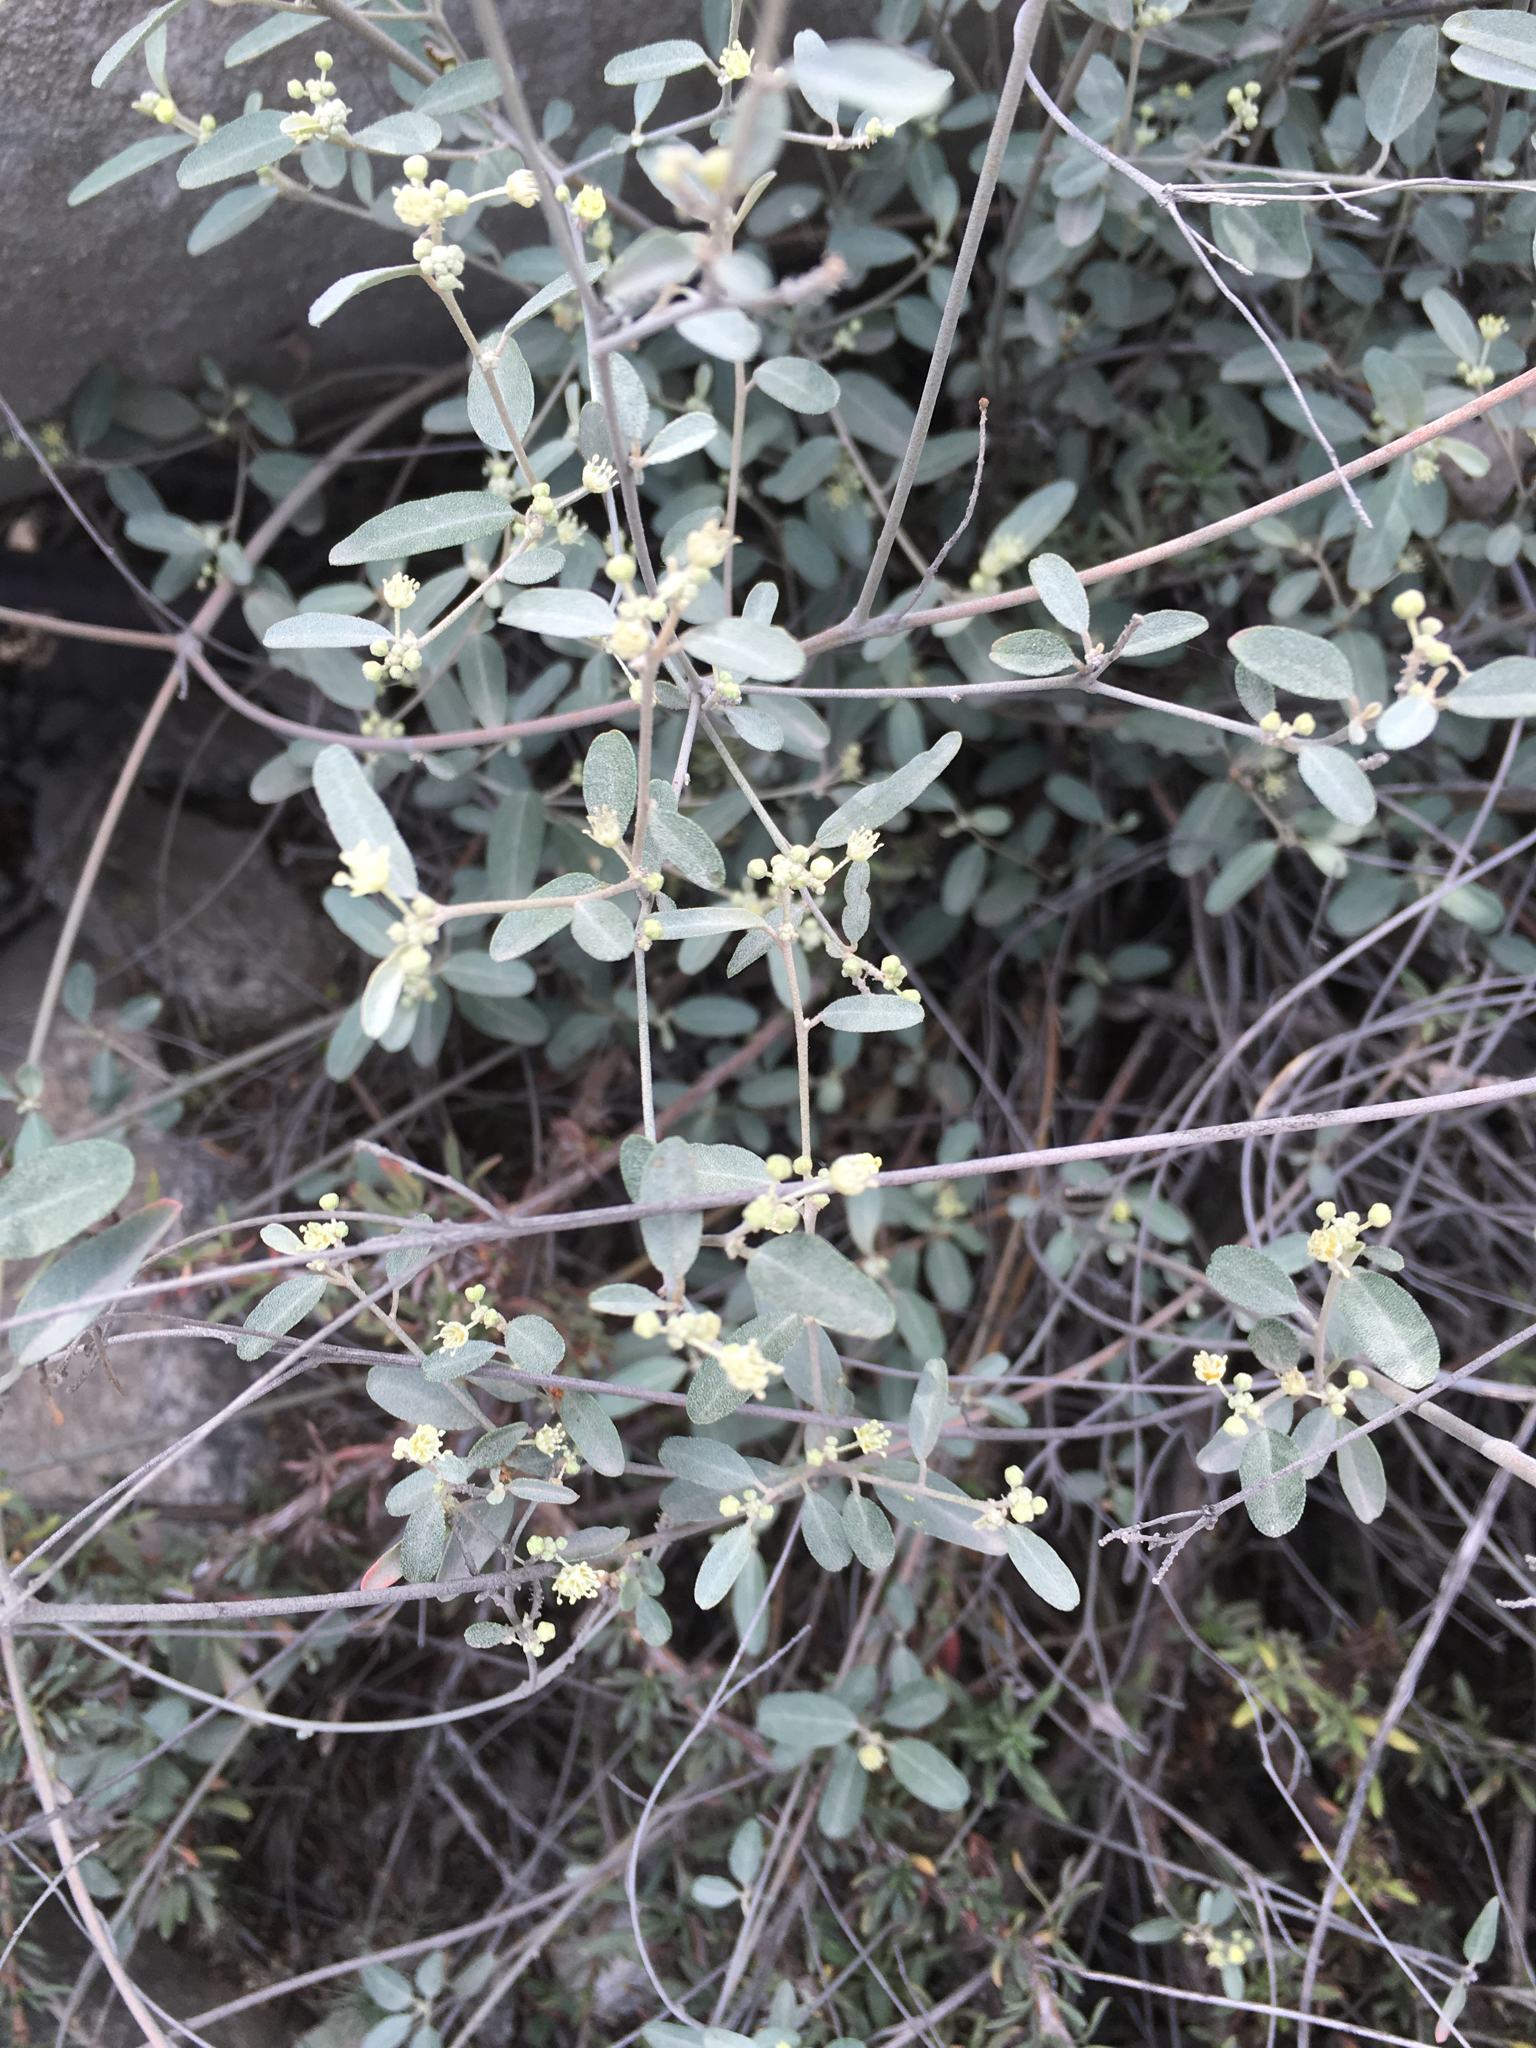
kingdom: Plantae
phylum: Tracheophyta
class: Magnoliopsida
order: Malpighiales
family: Euphorbiaceae
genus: Croton
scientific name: Croton californicus
